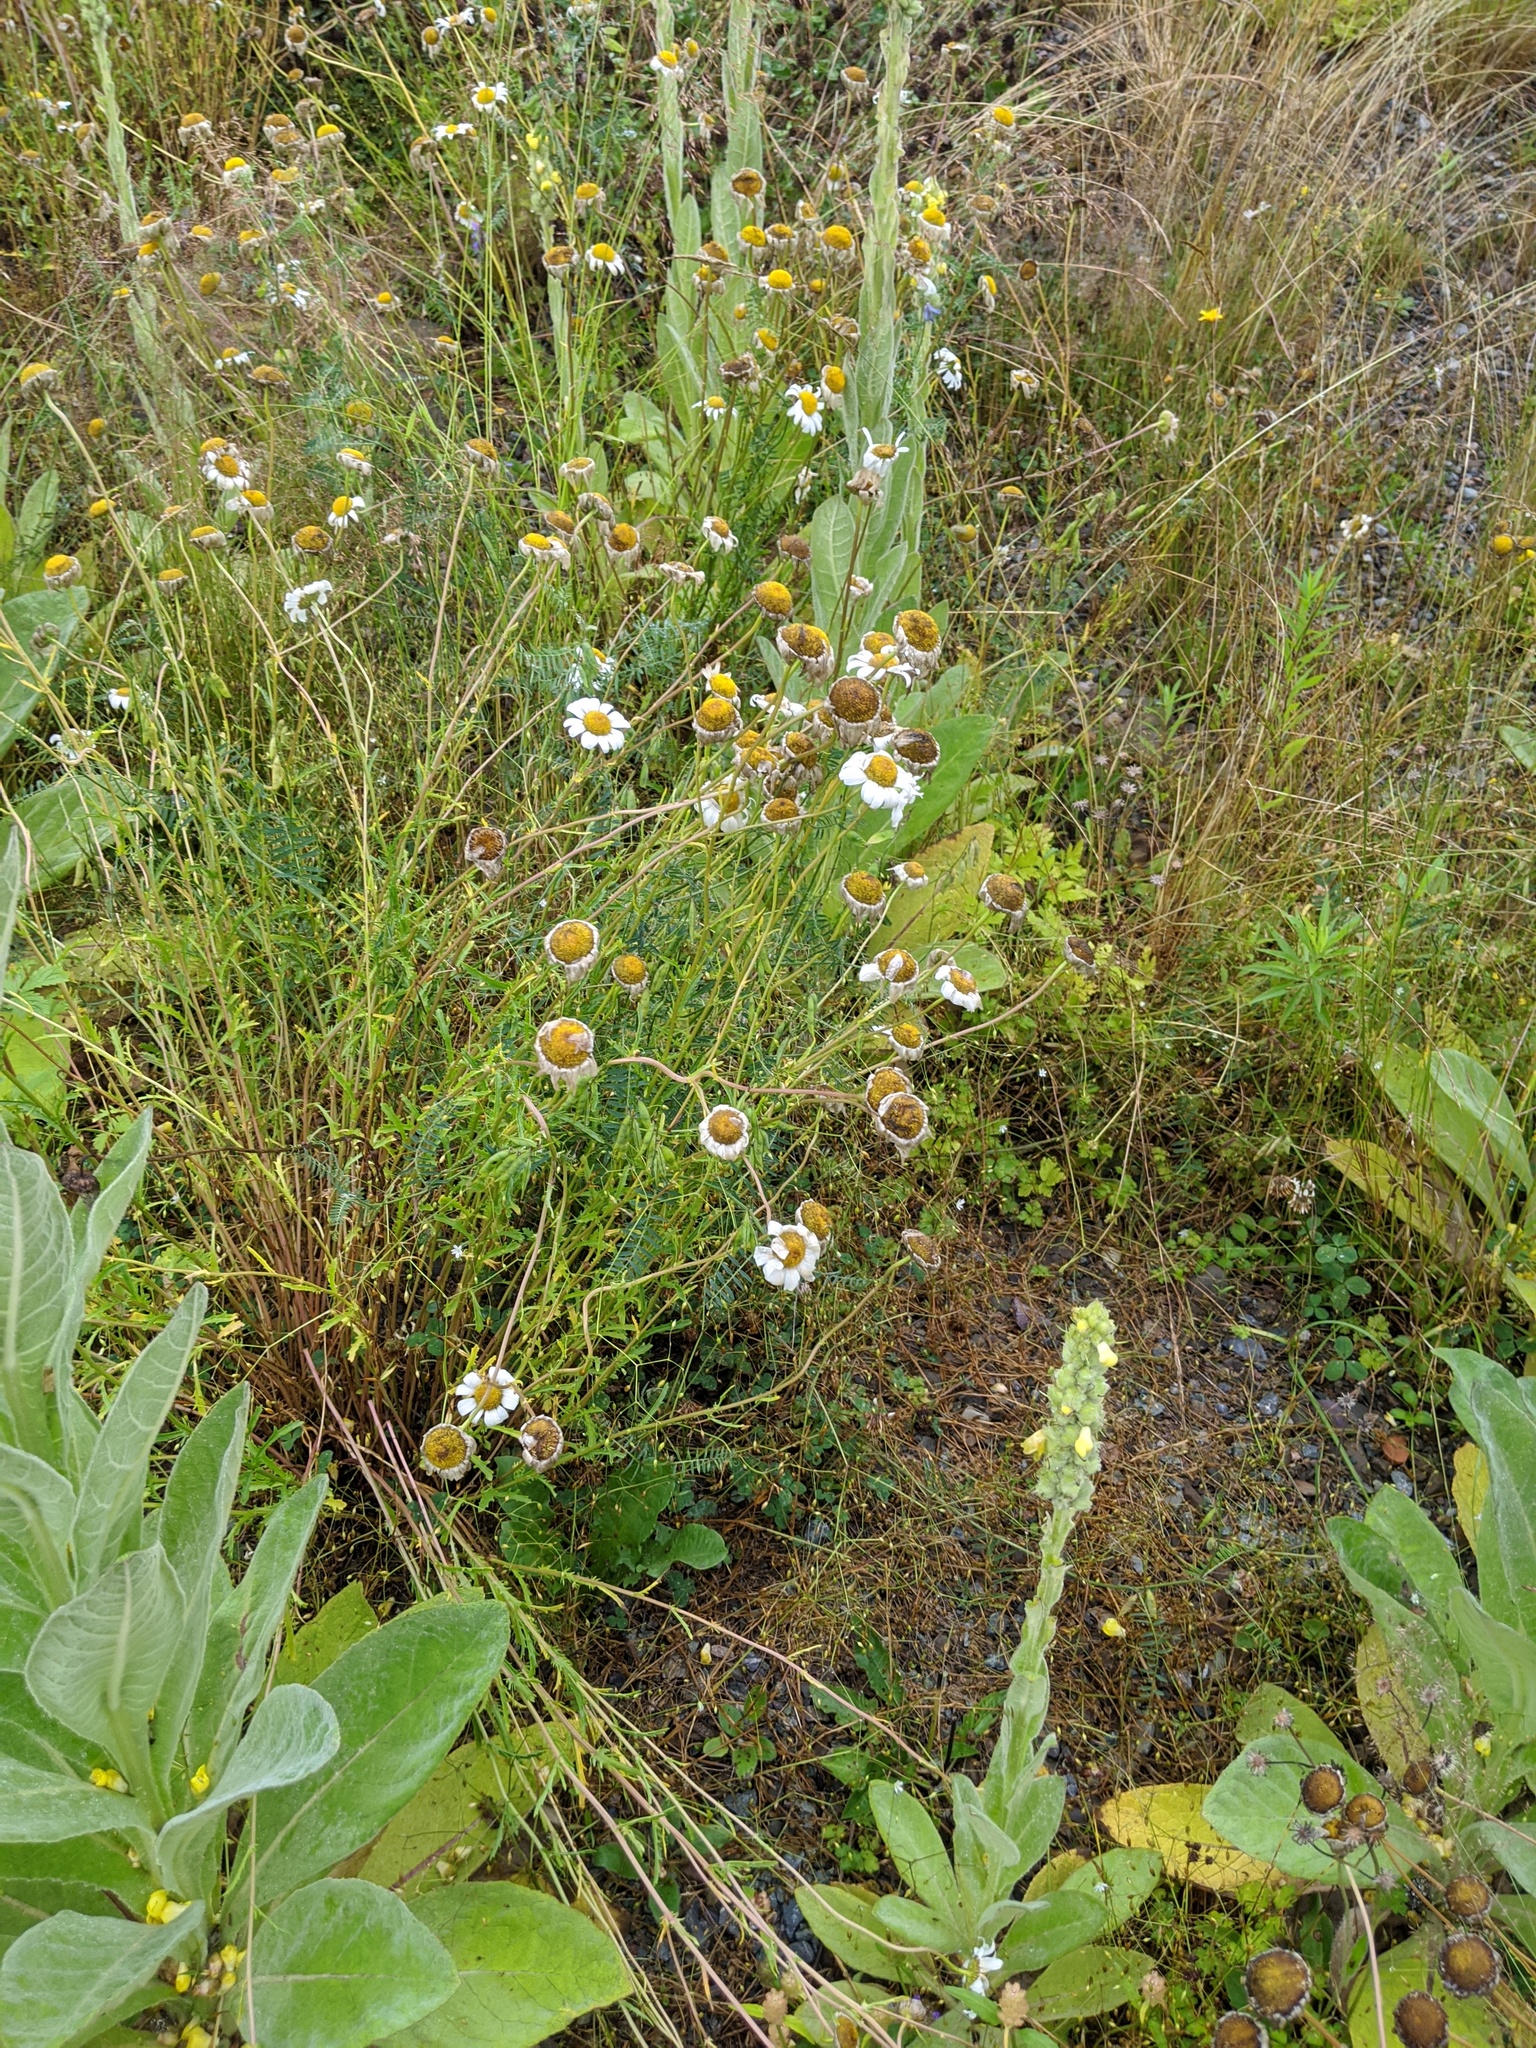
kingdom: Plantae
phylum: Tracheophyta
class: Magnoliopsida
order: Asterales
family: Asteraceae
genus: Leucanthemum
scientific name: Leucanthemum vulgare
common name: Oxeye daisy
